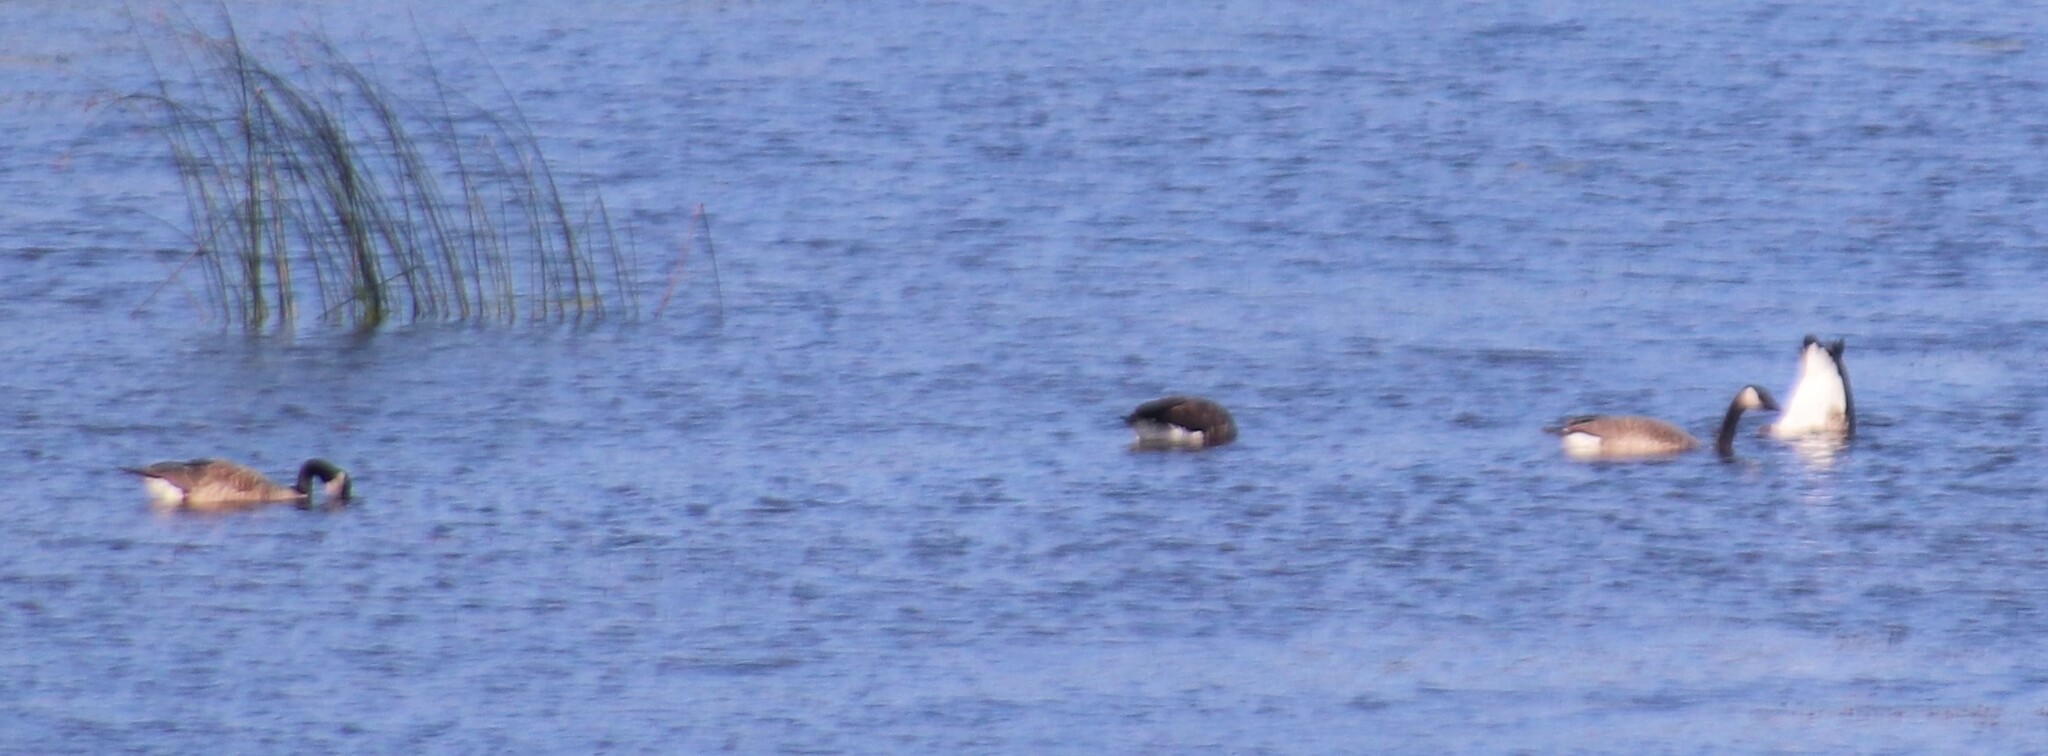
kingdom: Animalia
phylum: Chordata
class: Aves
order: Anseriformes
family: Anatidae
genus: Branta
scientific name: Branta canadensis
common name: Canada goose
